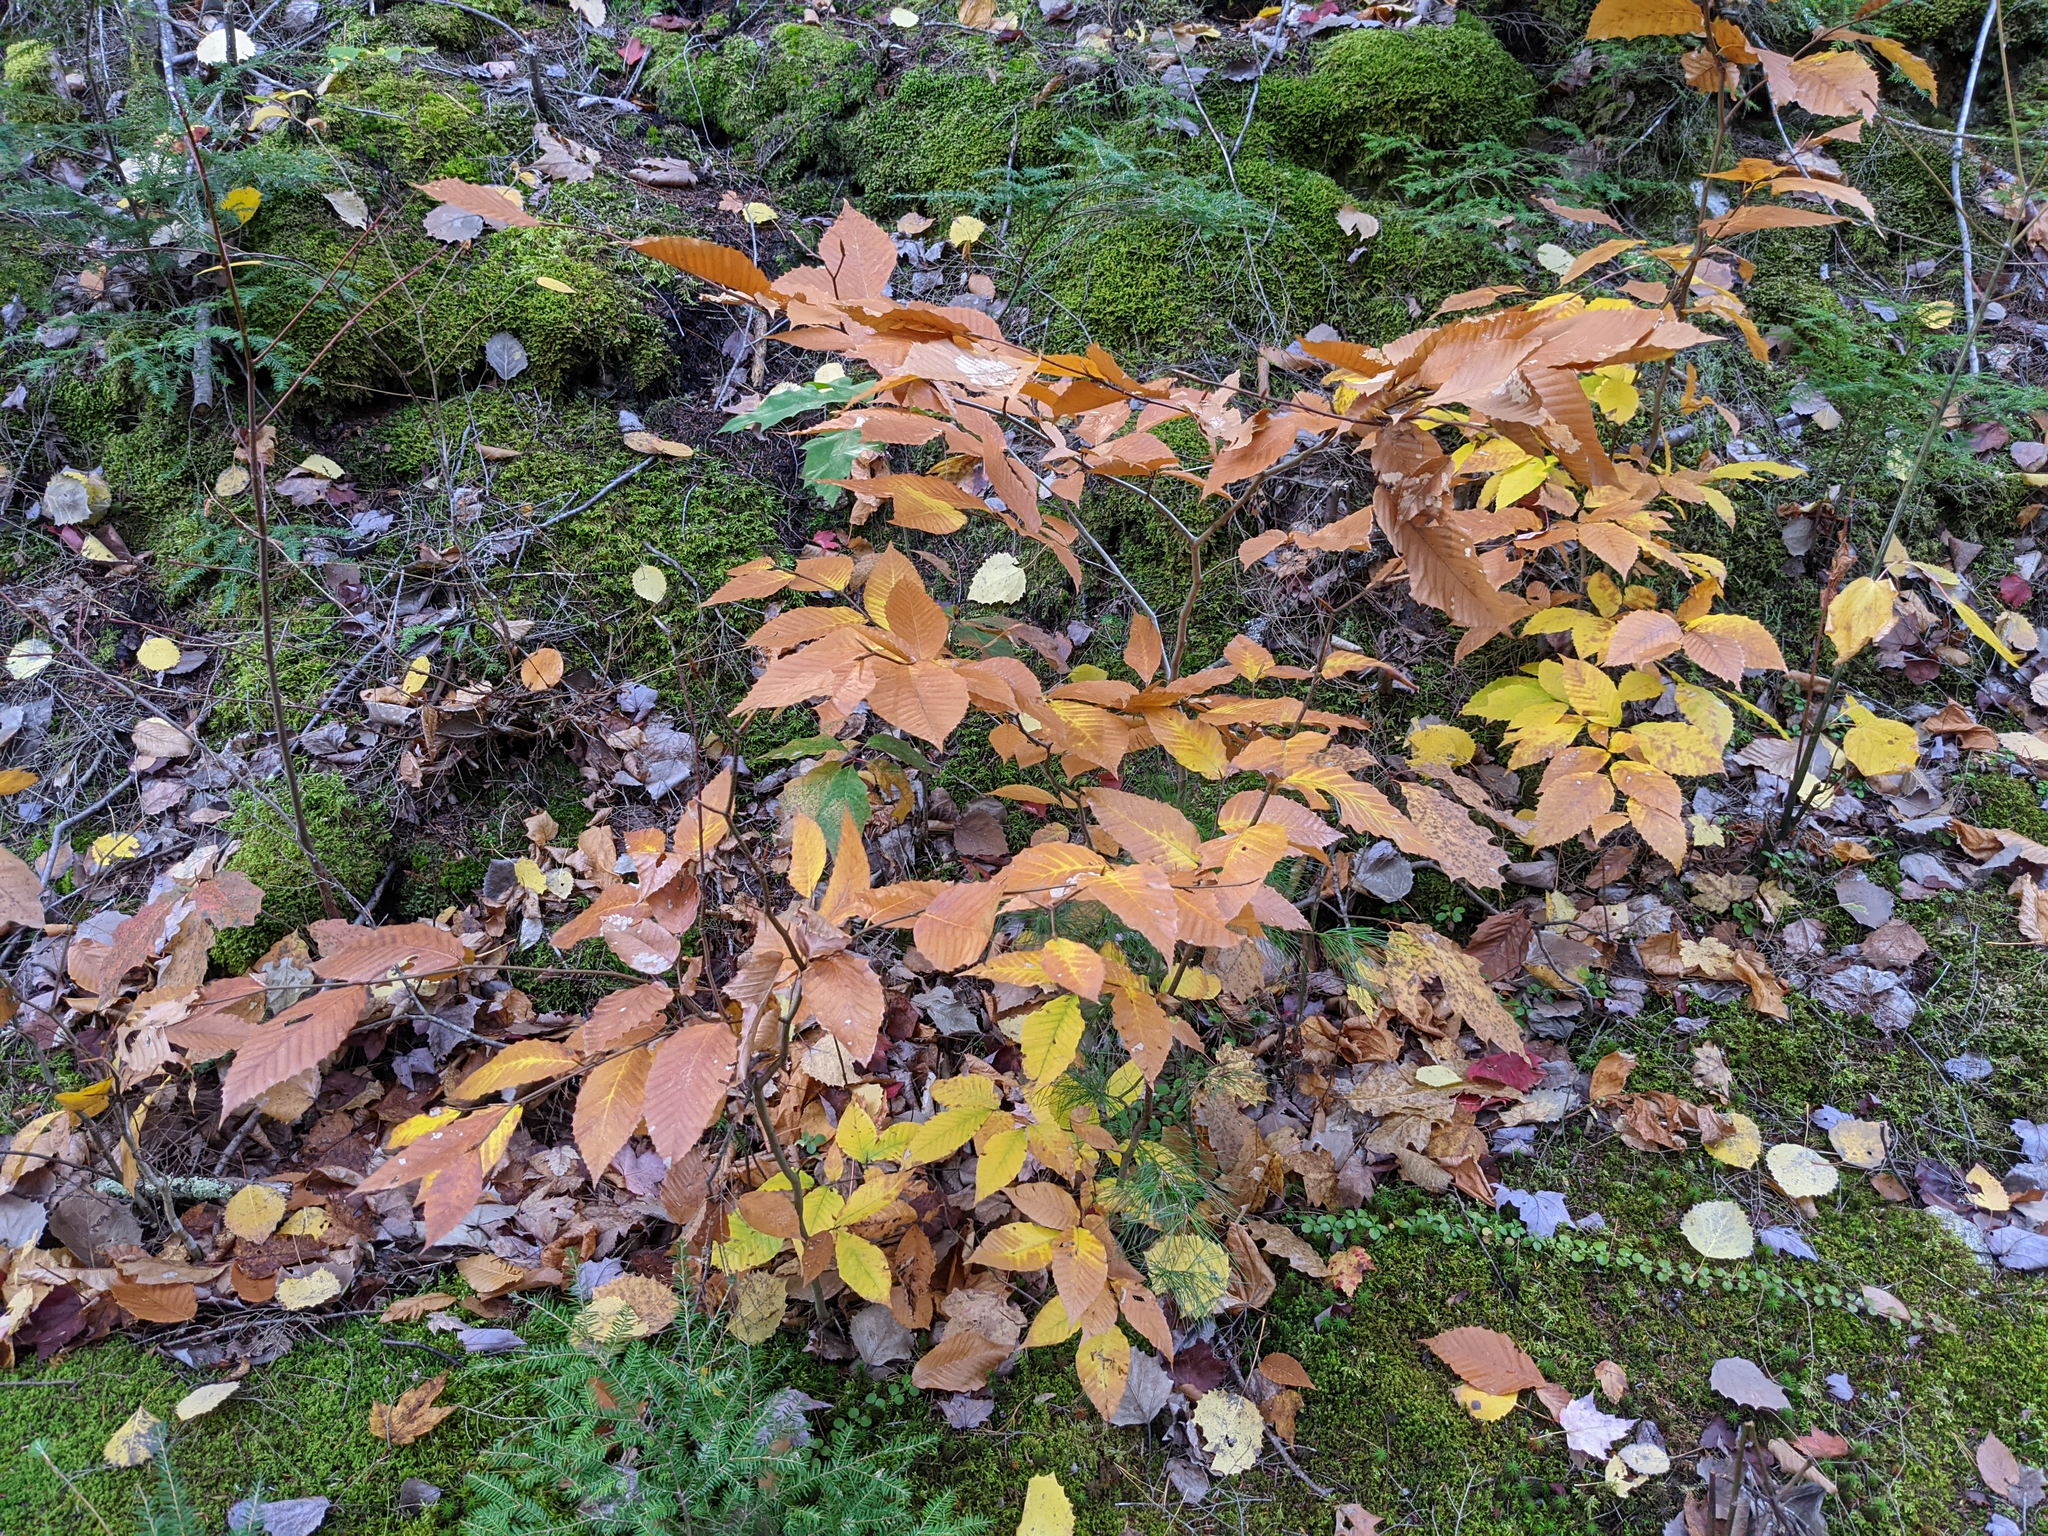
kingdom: Plantae
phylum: Tracheophyta
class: Magnoliopsida
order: Fagales
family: Fagaceae
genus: Fagus
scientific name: Fagus grandifolia
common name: American beech
